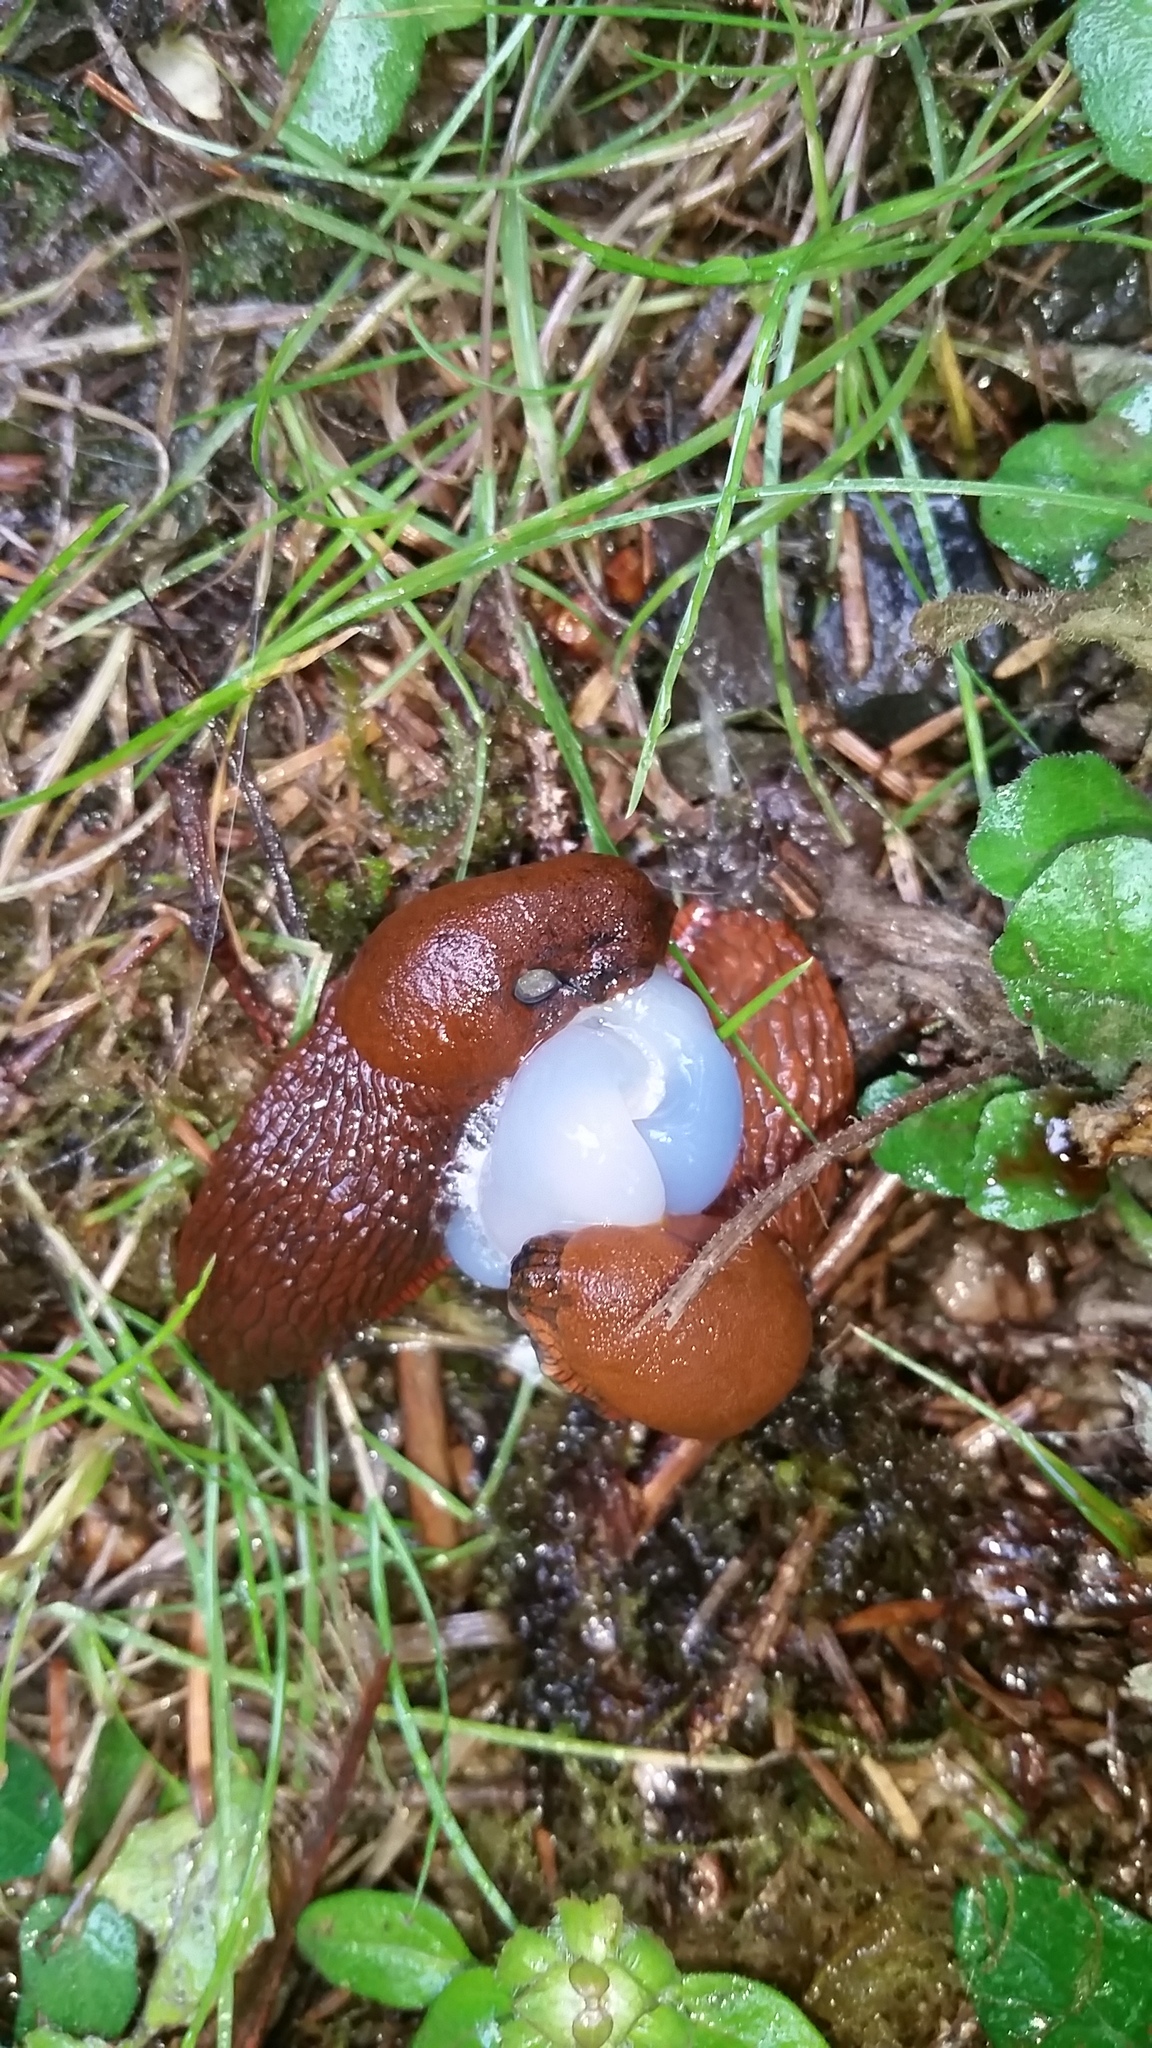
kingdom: Animalia
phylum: Mollusca
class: Gastropoda
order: Stylommatophora
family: Arionidae
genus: Arion
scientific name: Arion rufus
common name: Chocolate arion
